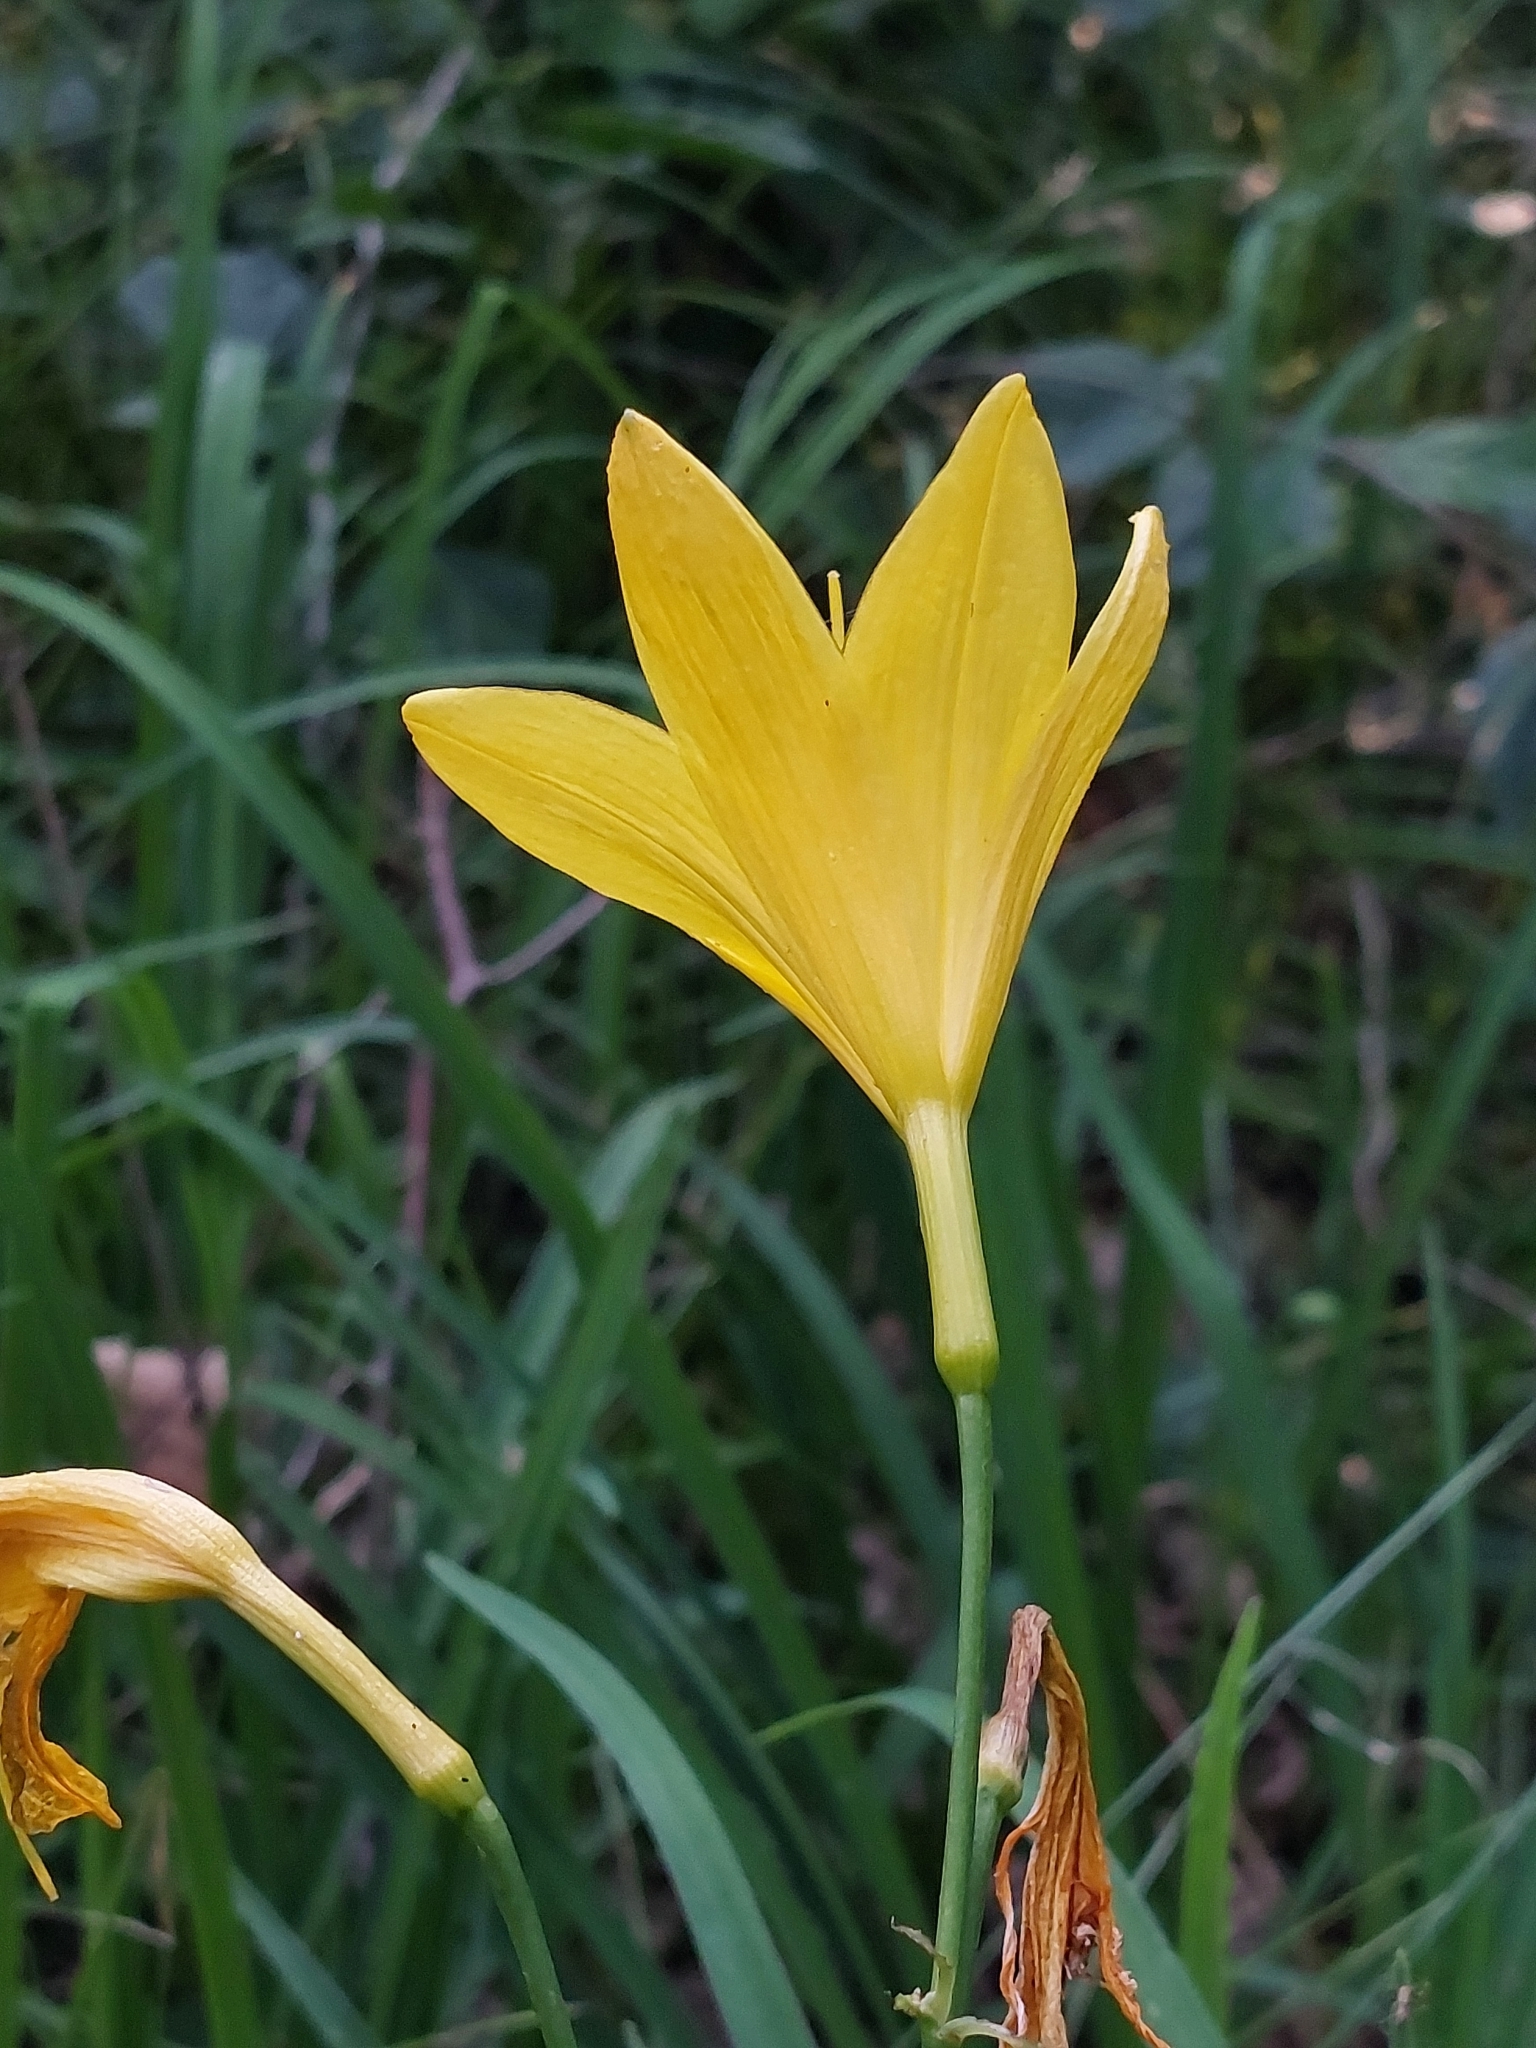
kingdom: Plantae
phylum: Tracheophyta
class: Liliopsida
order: Asparagales
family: Asphodelaceae
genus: Hemerocallis
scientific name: Hemerocallis lilioasphodelus
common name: Yellow day-lily
